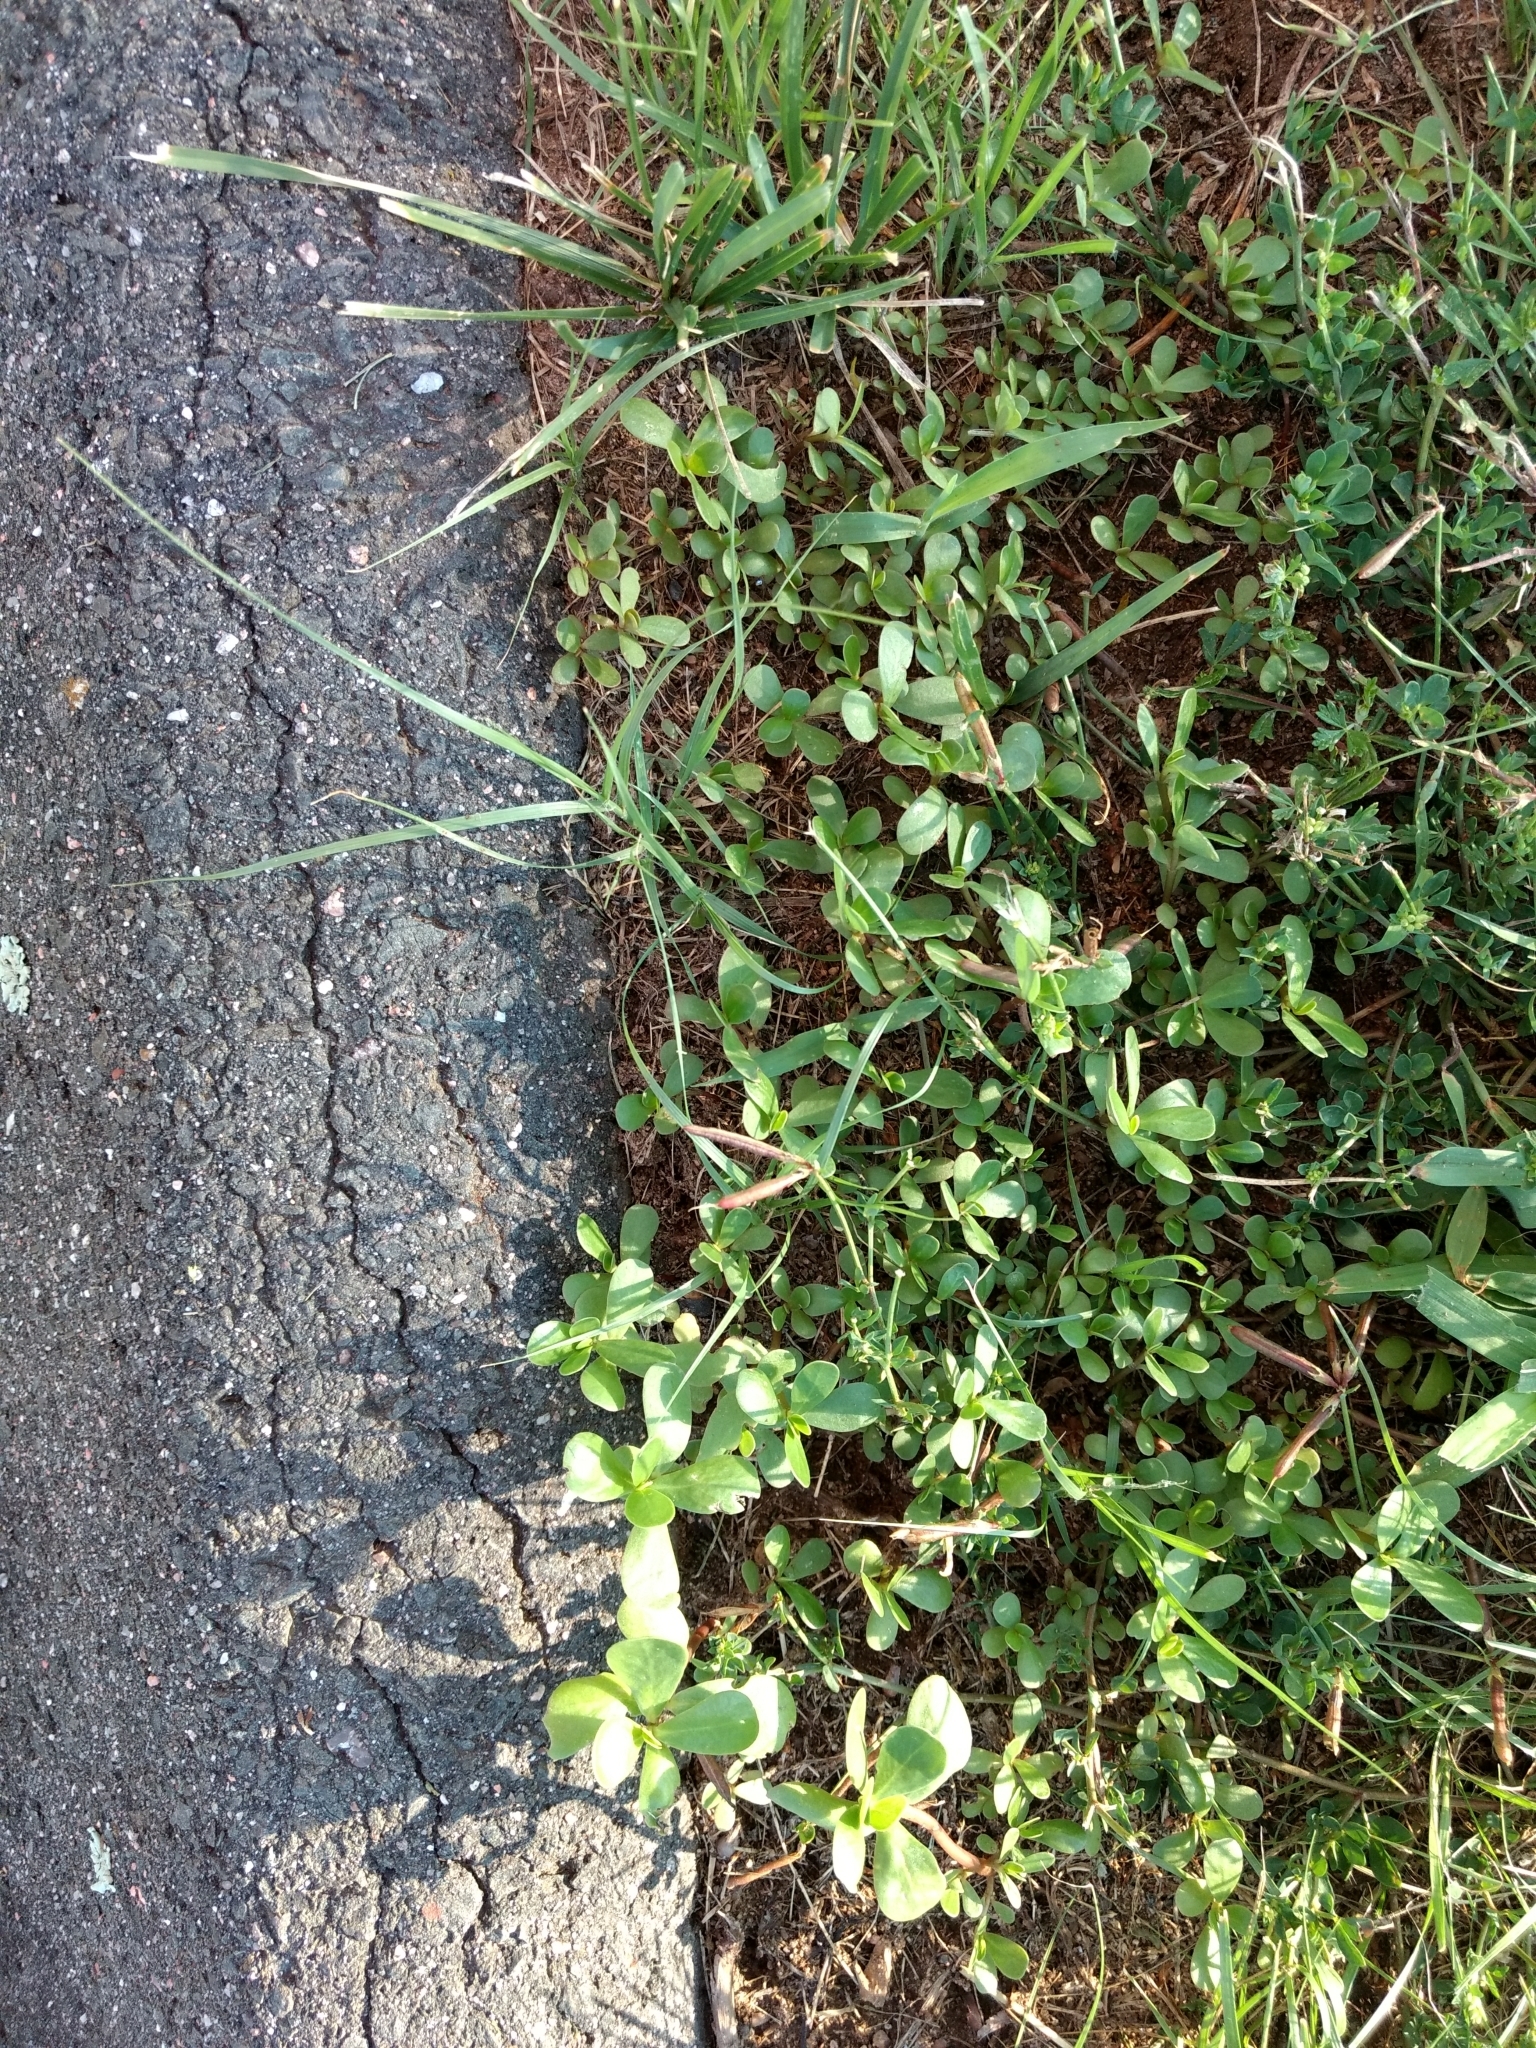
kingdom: Plantae
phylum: Tracheophyta
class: Magnoliopsida
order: Caryophyllales
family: Portulacaceae
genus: Portulaca
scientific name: Portulaca oleracea
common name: Common purslane
